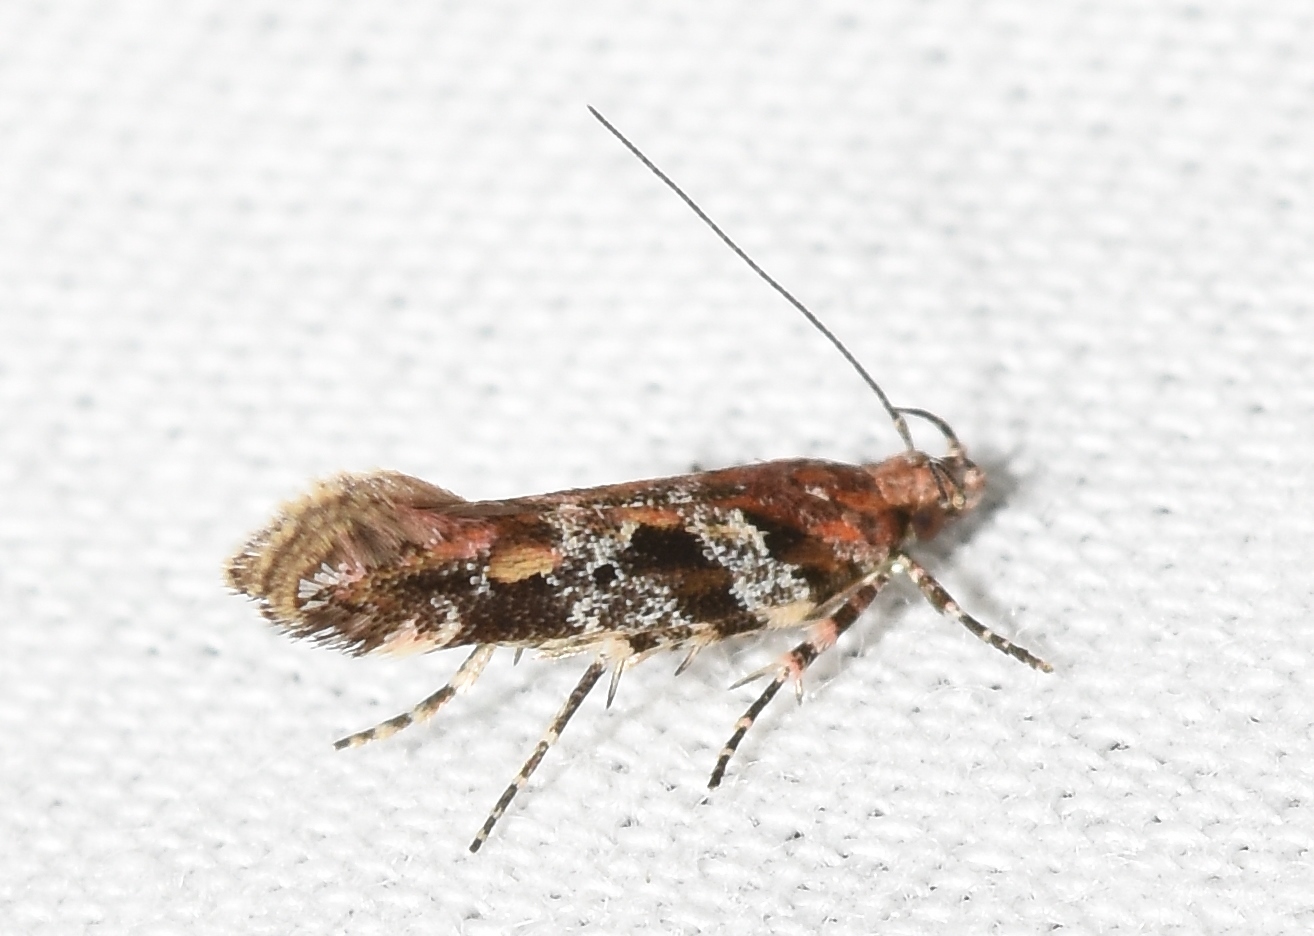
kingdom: Animalia
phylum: Arthropoda
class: Insecta
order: Lepidoptera
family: Gelechiidae
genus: Aristotelia
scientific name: Aristotelia roseosuffusella
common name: Pink-washed aristotelia moth
